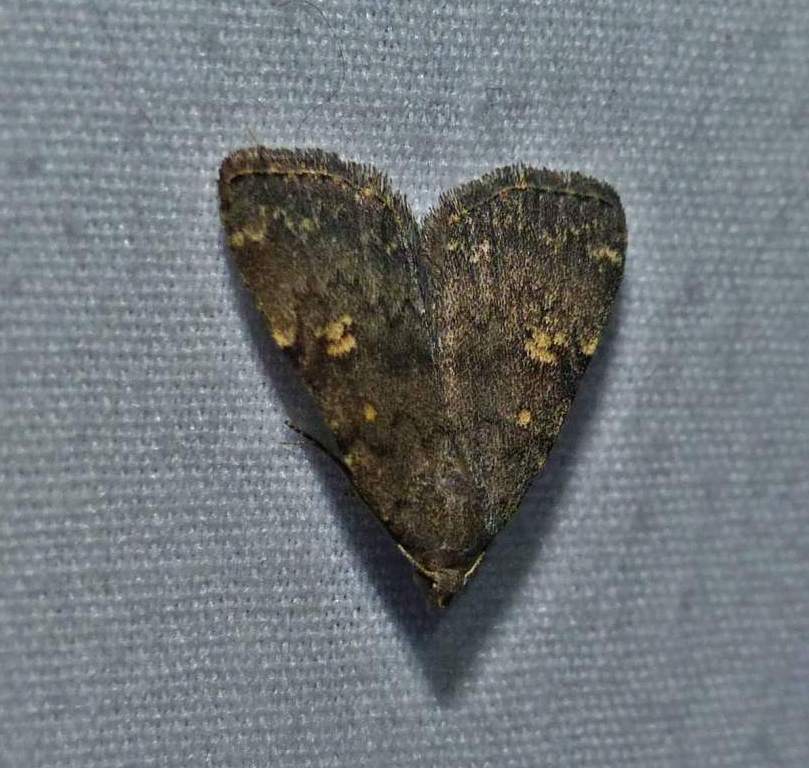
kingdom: Animalia
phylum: Arthropoda
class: Insecta
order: Lepidoptera
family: Erebidae
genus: Idia
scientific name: Idia aemula
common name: Common idia moth
